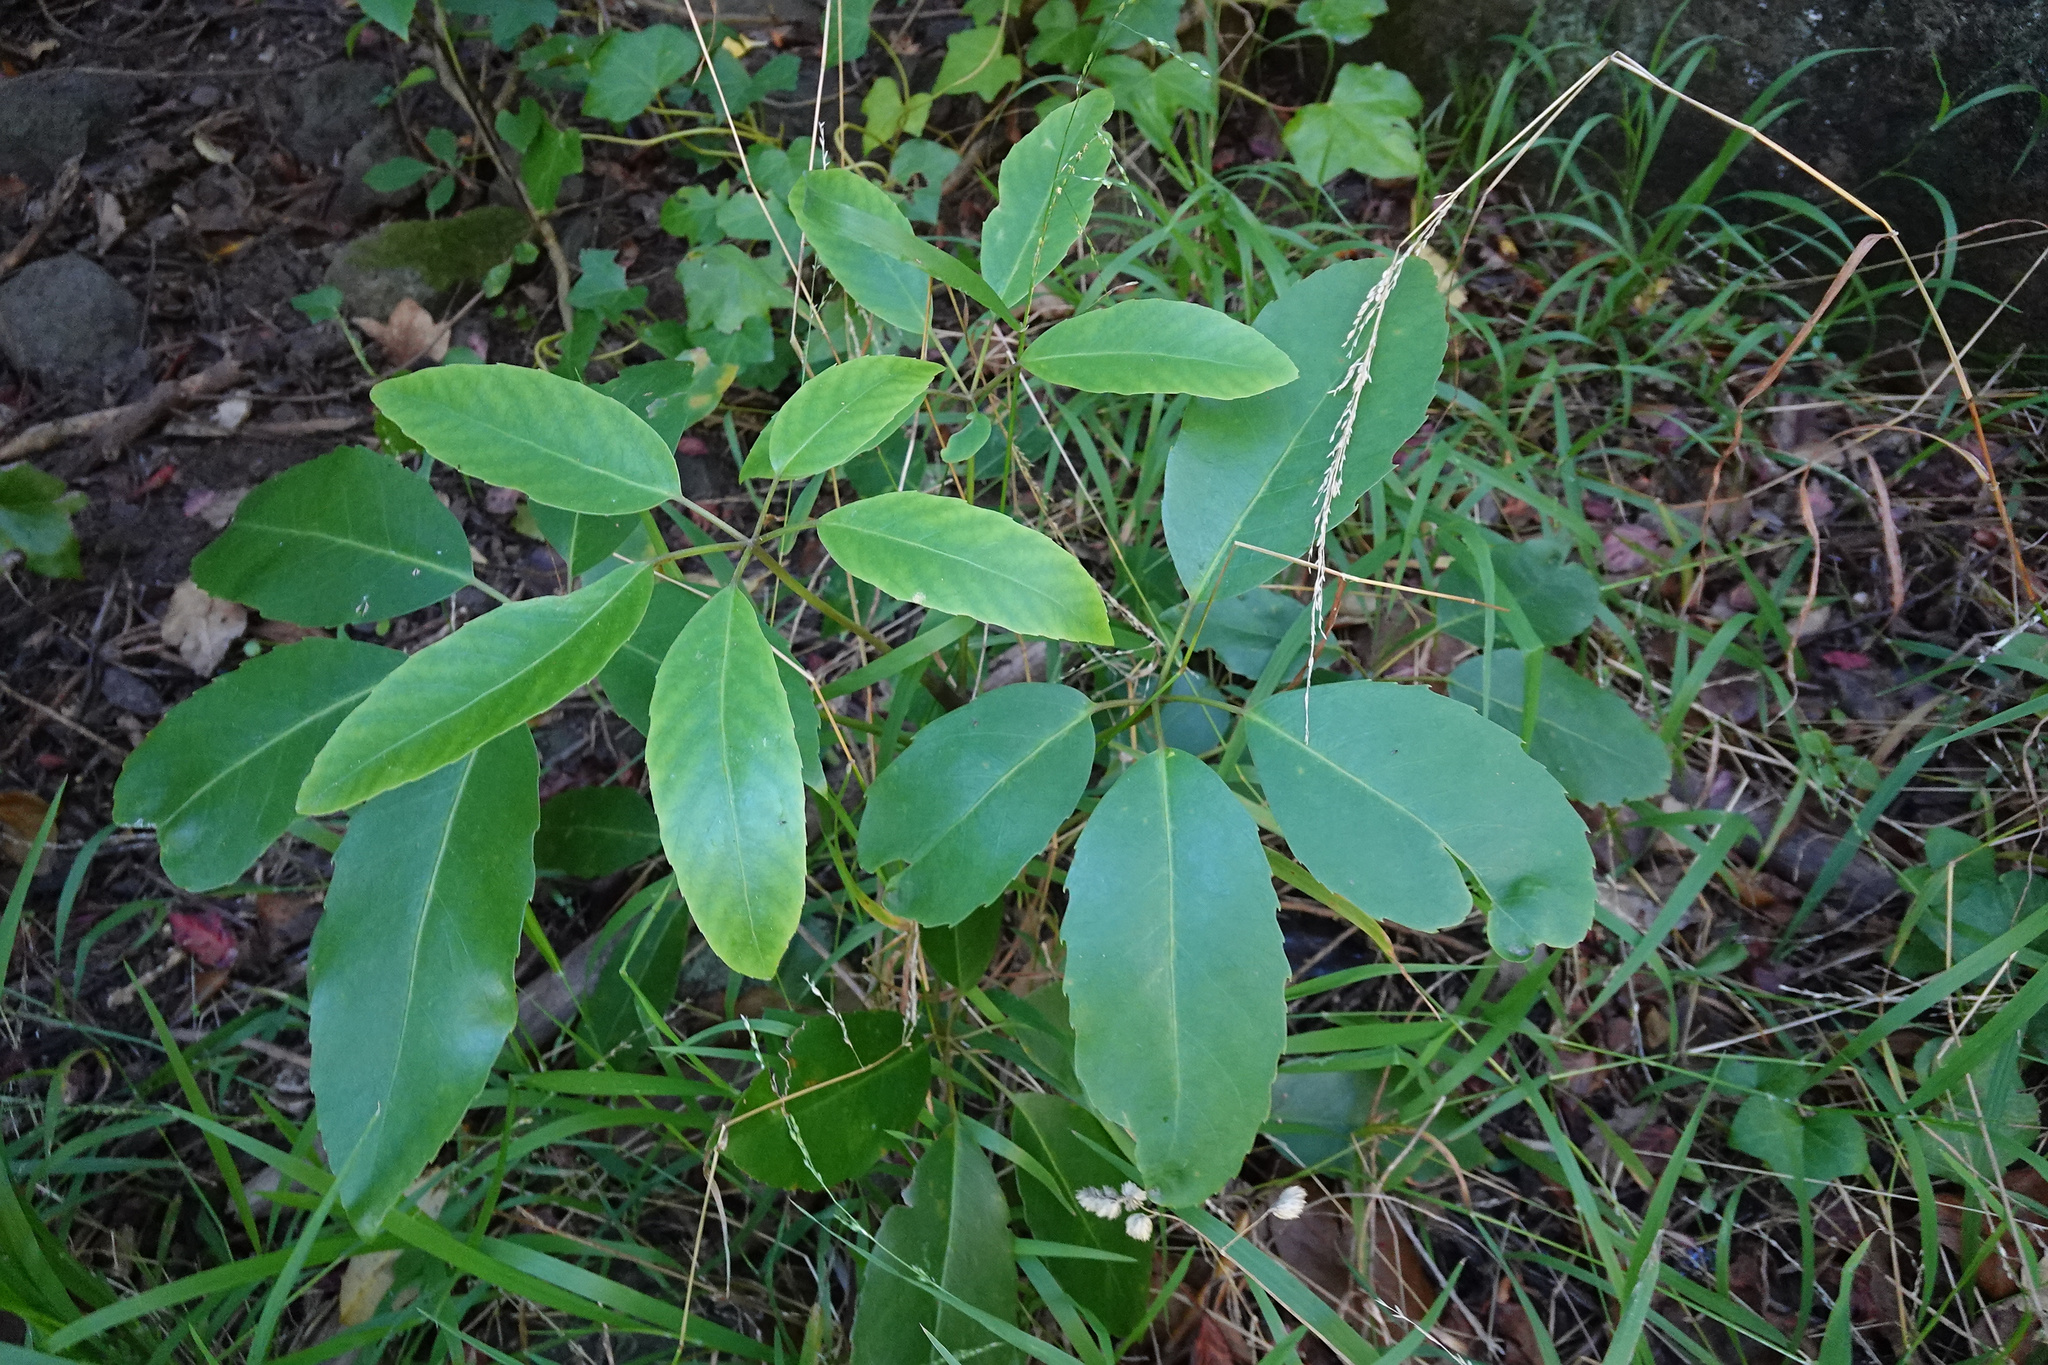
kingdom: Plantae
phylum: Tracheophyta
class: Magnoliopsida
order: Apiales
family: Araliaceae
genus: Neopanax
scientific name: Neopanax arboreus
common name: Five-fingers
